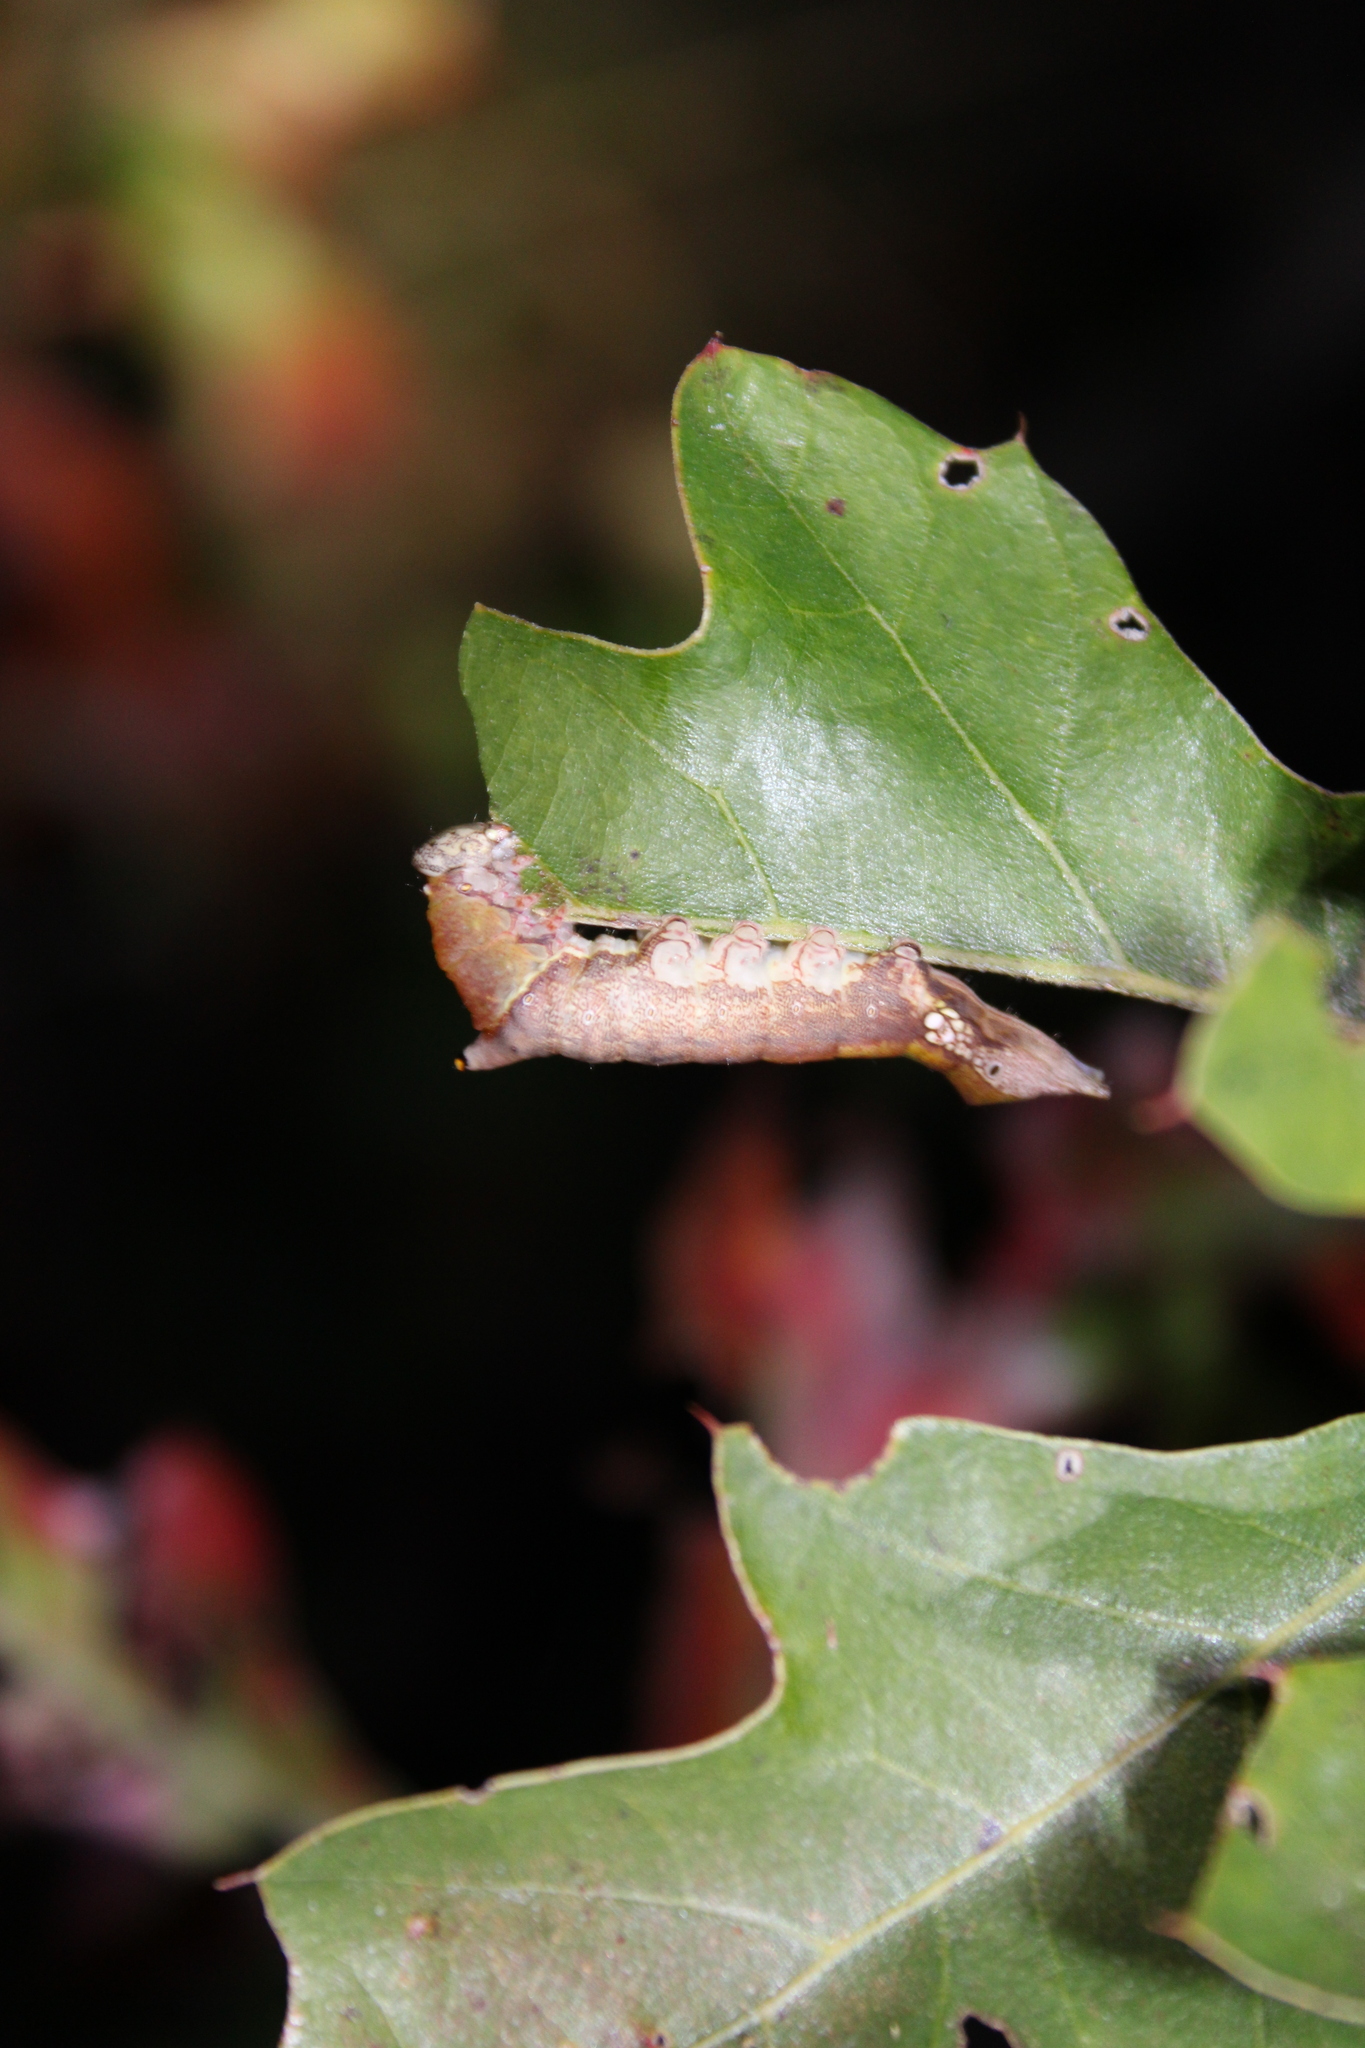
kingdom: Animalia
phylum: Arthropoda
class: Insecta
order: Lepidoptera
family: Notodontidae
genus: Oligocentria
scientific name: Oligocentria Ianassa lignicolor
